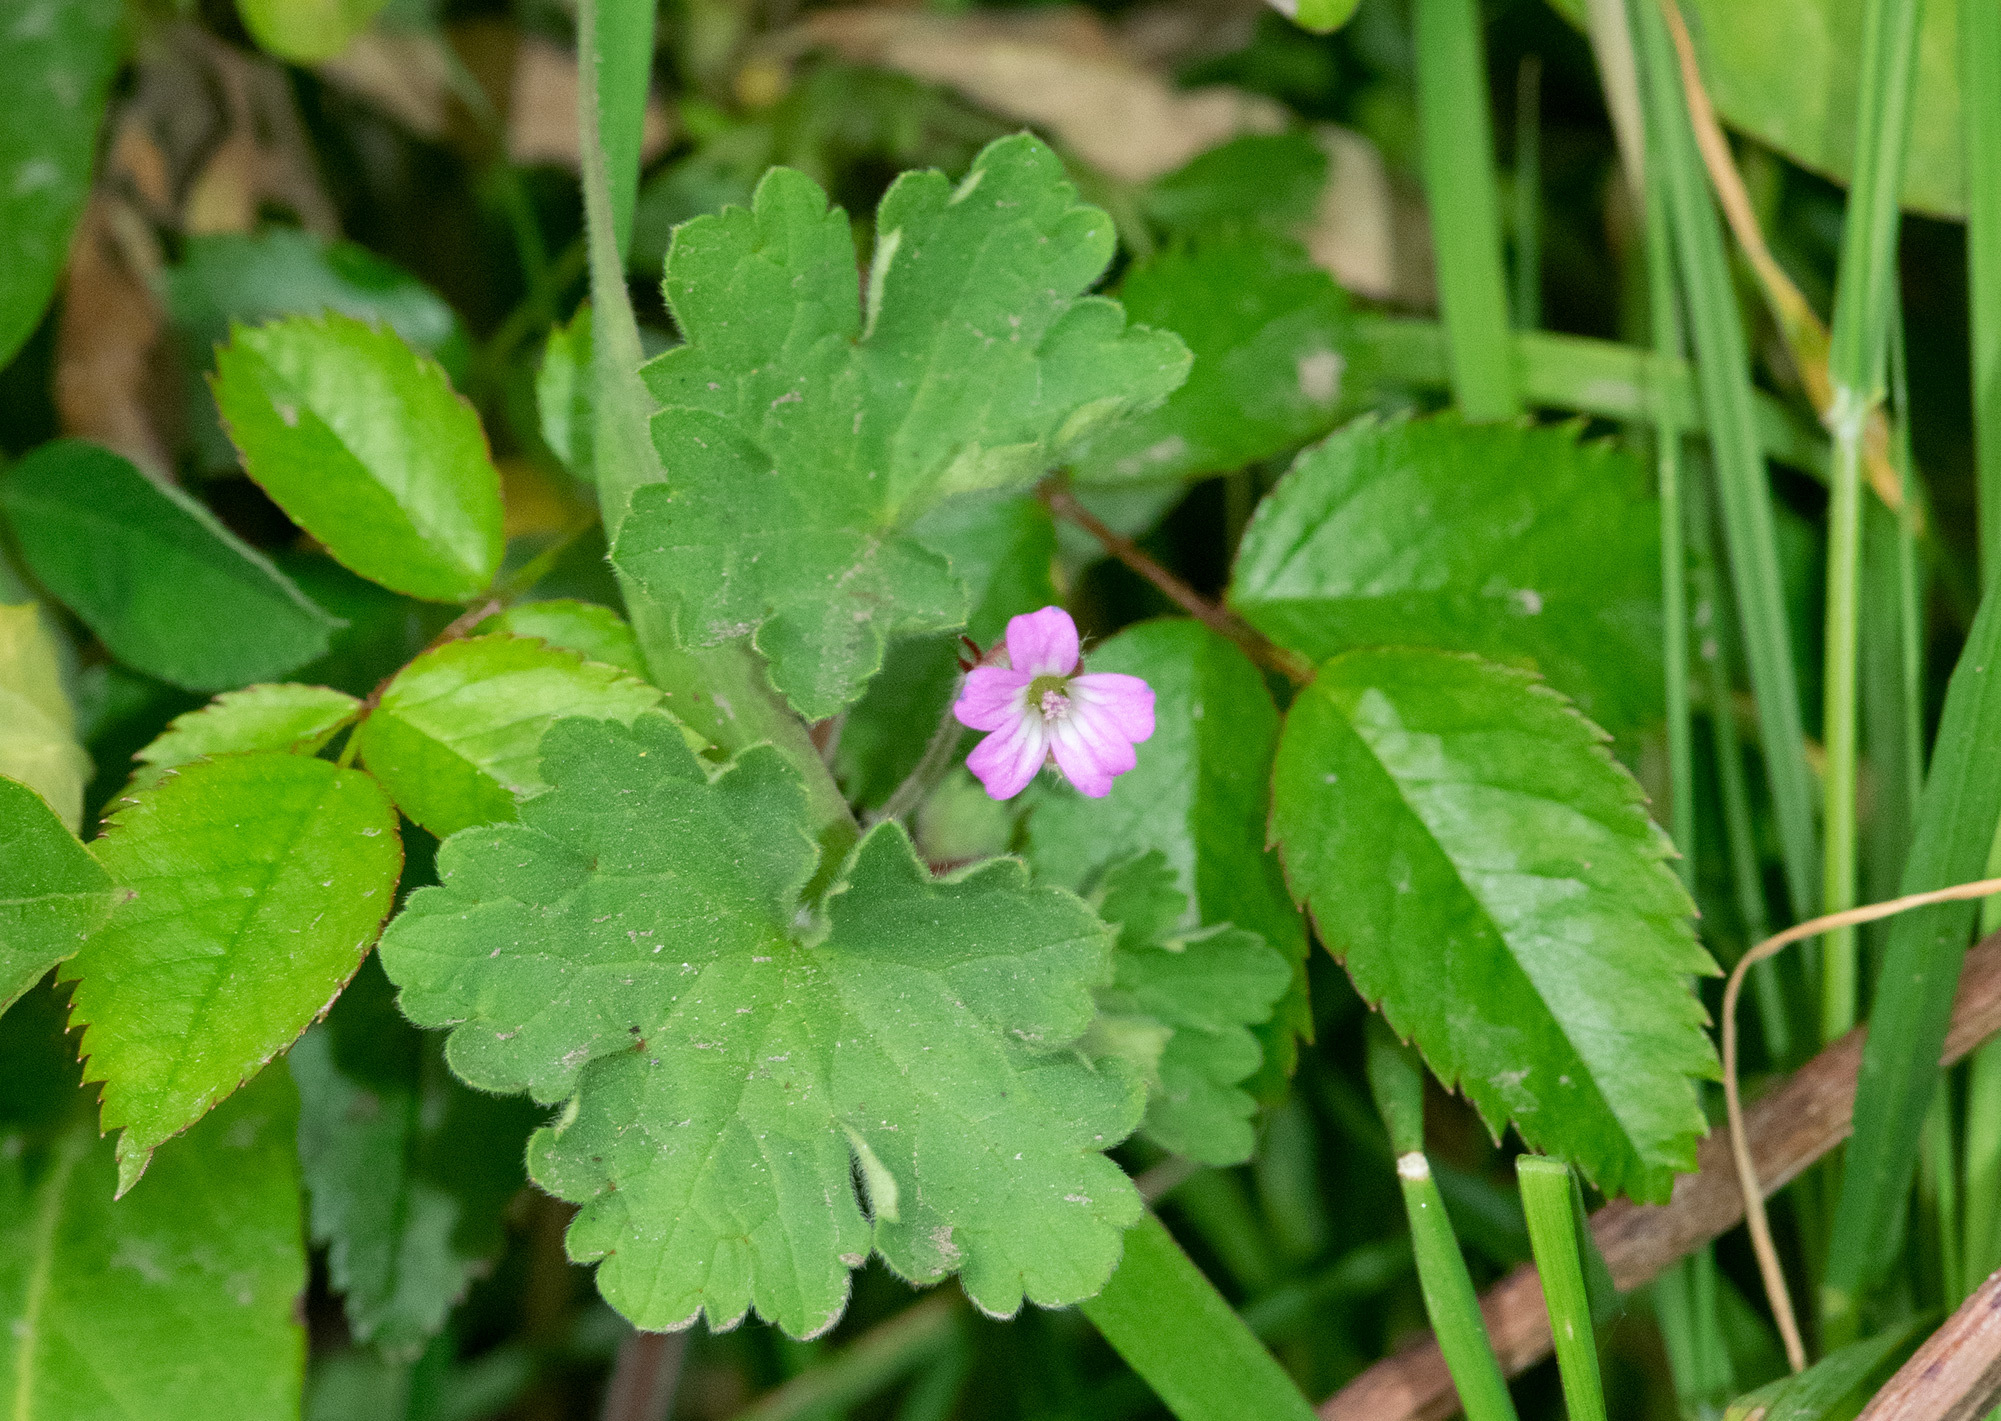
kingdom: Plantae
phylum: Tracheophyta
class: Magnoliopsida
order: Geraniales
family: Geraniaceae
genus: Geranium
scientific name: Geranium rotundifolium
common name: Round-leaved crane's-bill
